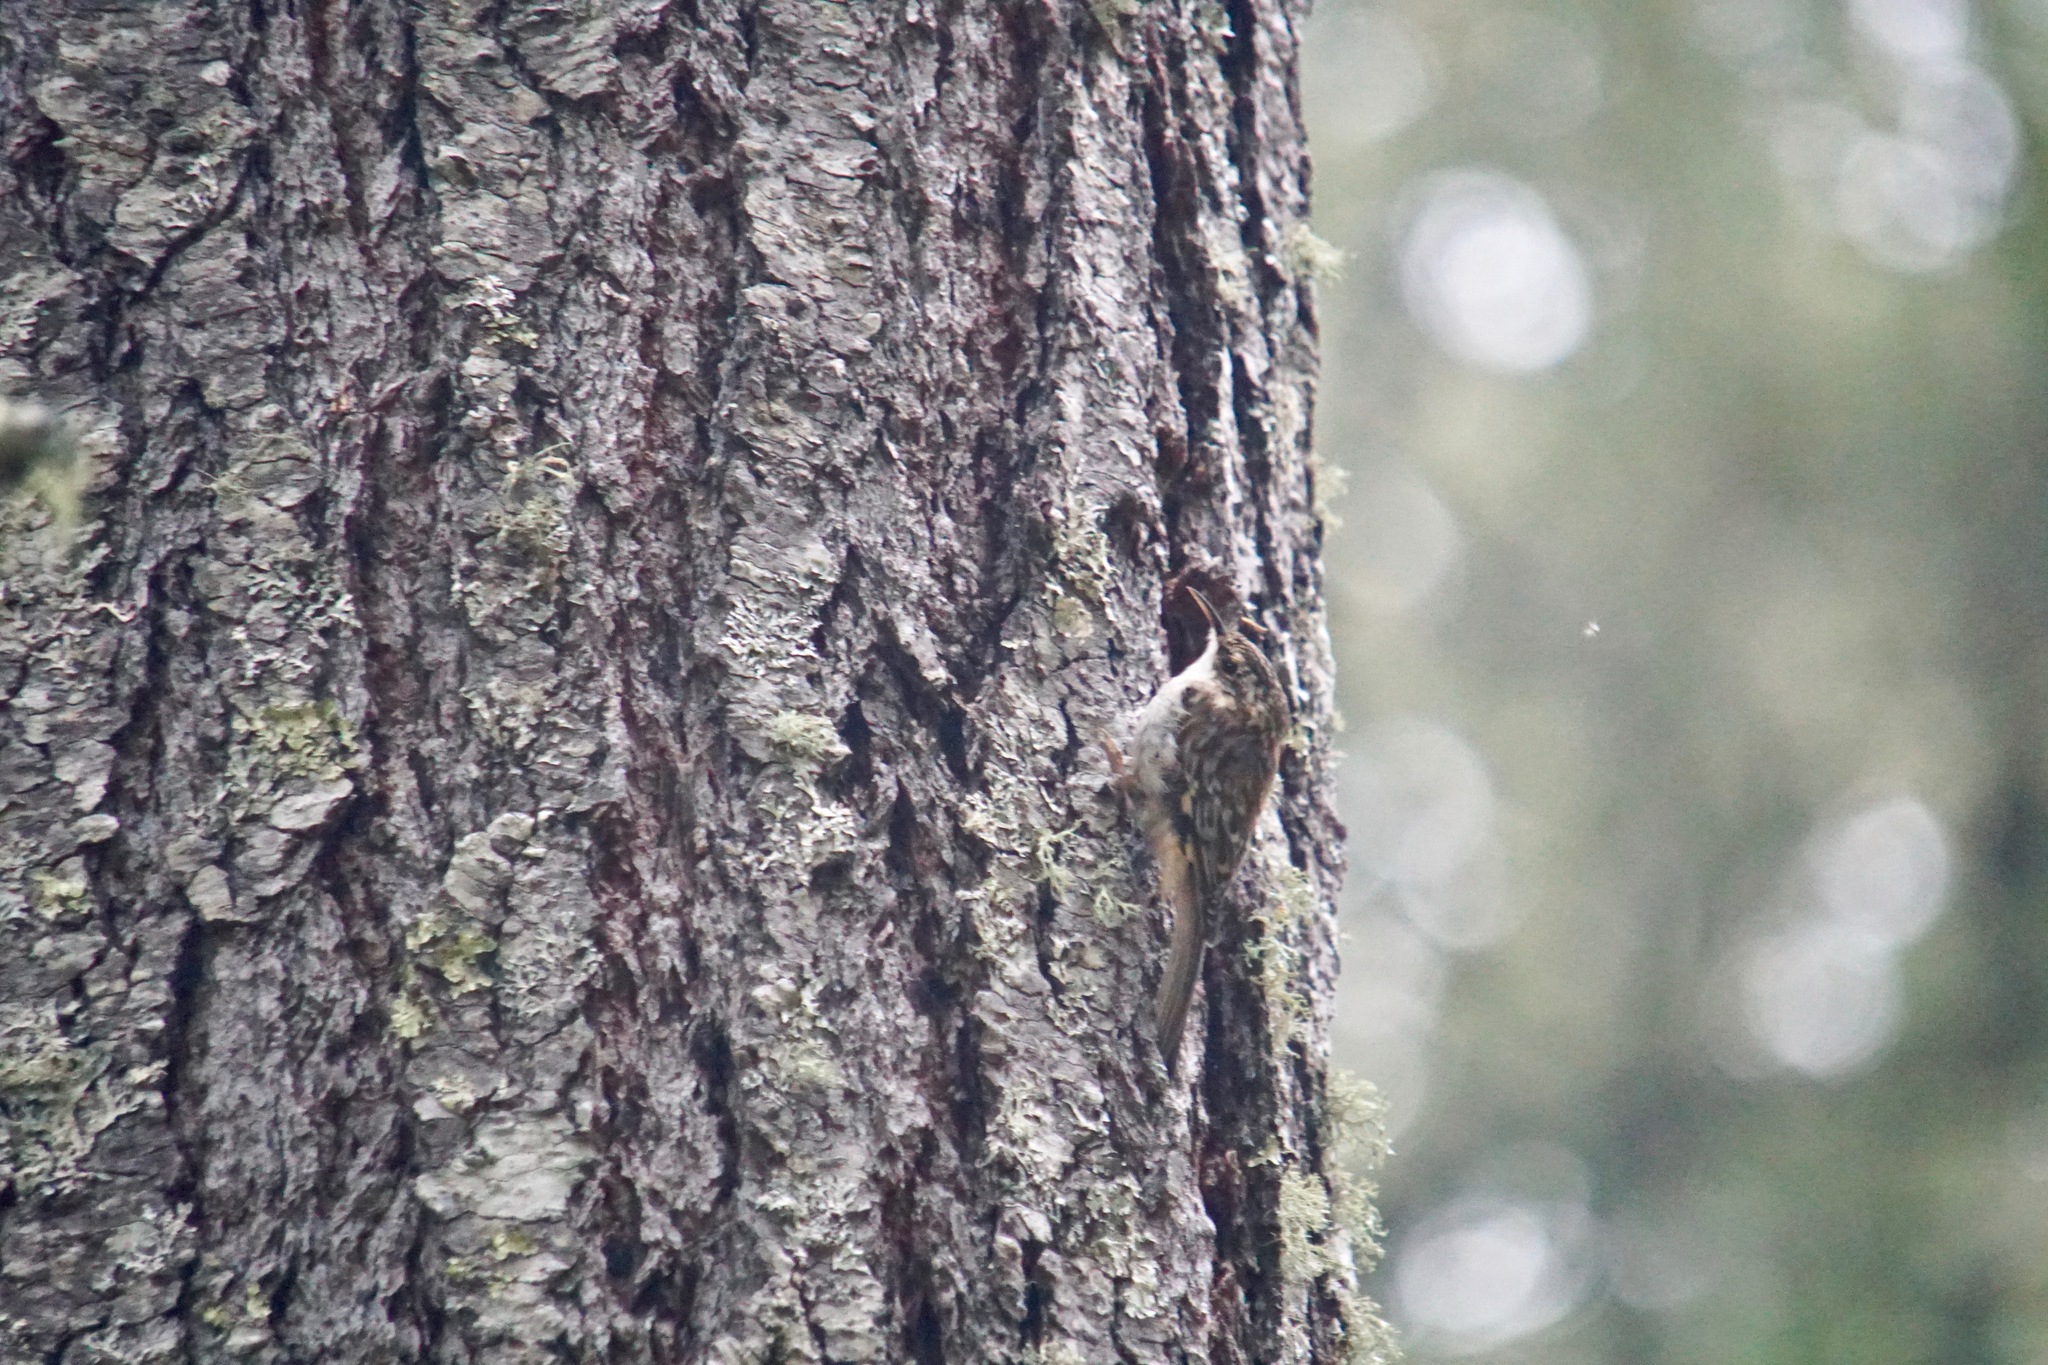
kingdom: Animalia
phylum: Chordata
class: Aves
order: Passeriformes
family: Certhiidae
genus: Certhia
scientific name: Certhia americana
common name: Brown creeper
